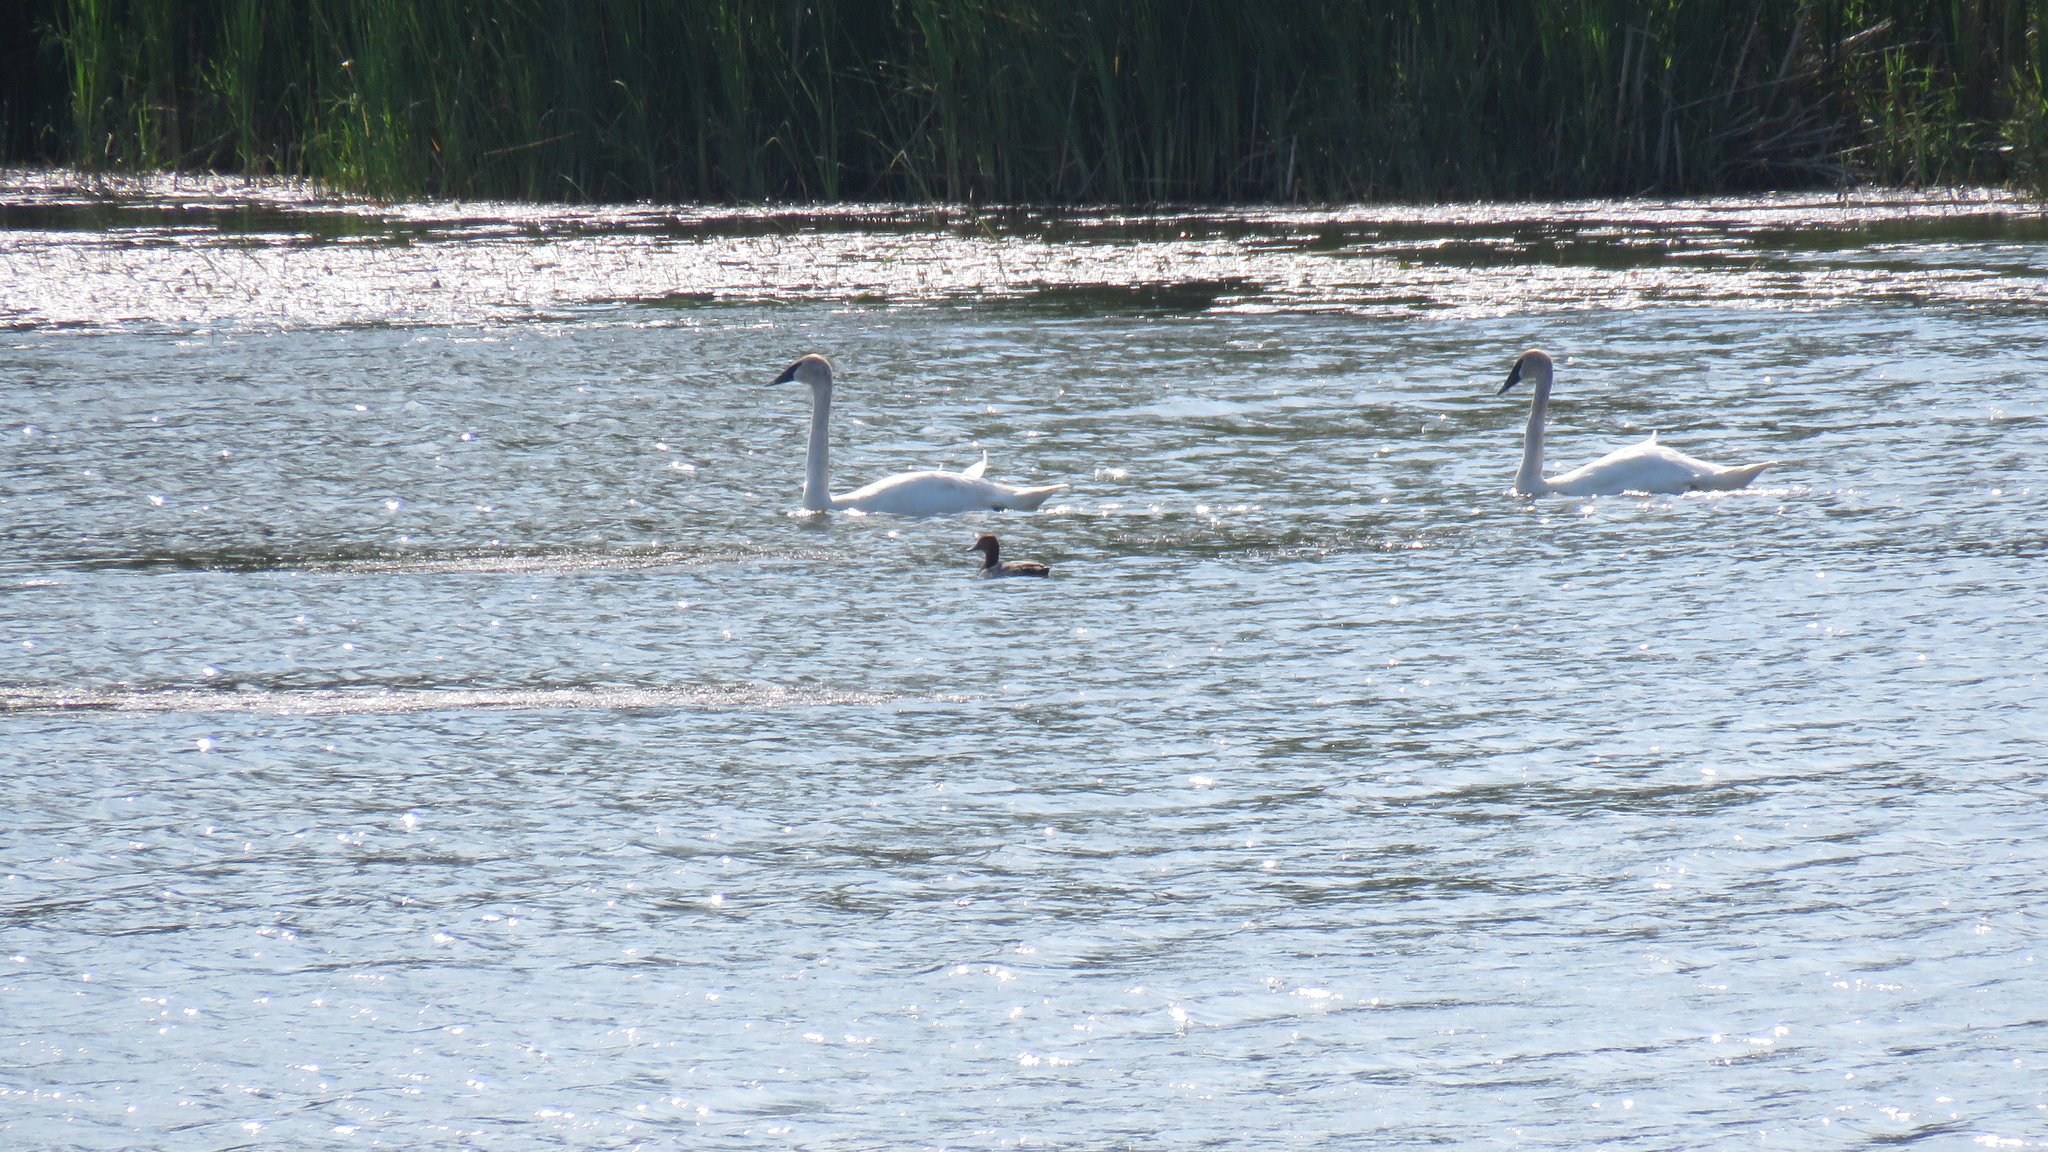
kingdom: Animalia
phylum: Chordata
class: Aves
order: Anseriformes
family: Anatidae
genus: Cygnus
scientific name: Cygnus buccinator
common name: Trumpeter swan
